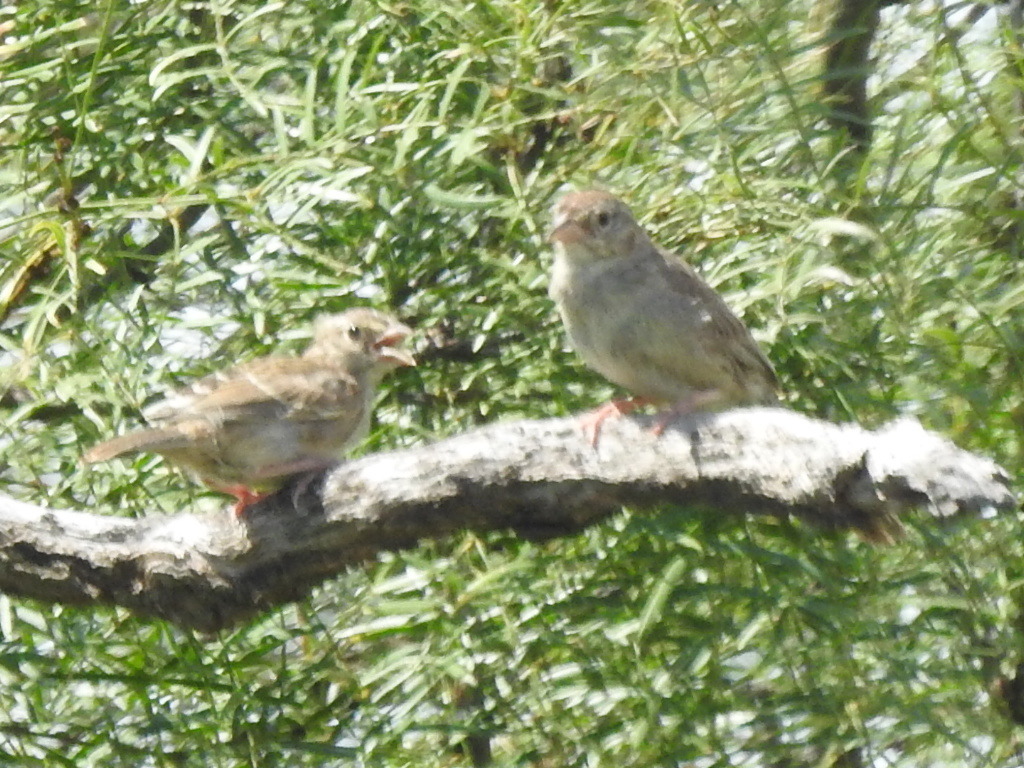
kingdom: Animalia
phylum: Chordata
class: Aves
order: Passeriformes
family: Passerellidae
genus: Peucaea
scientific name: Peucaea cassinii
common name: Cassin's sparrow
